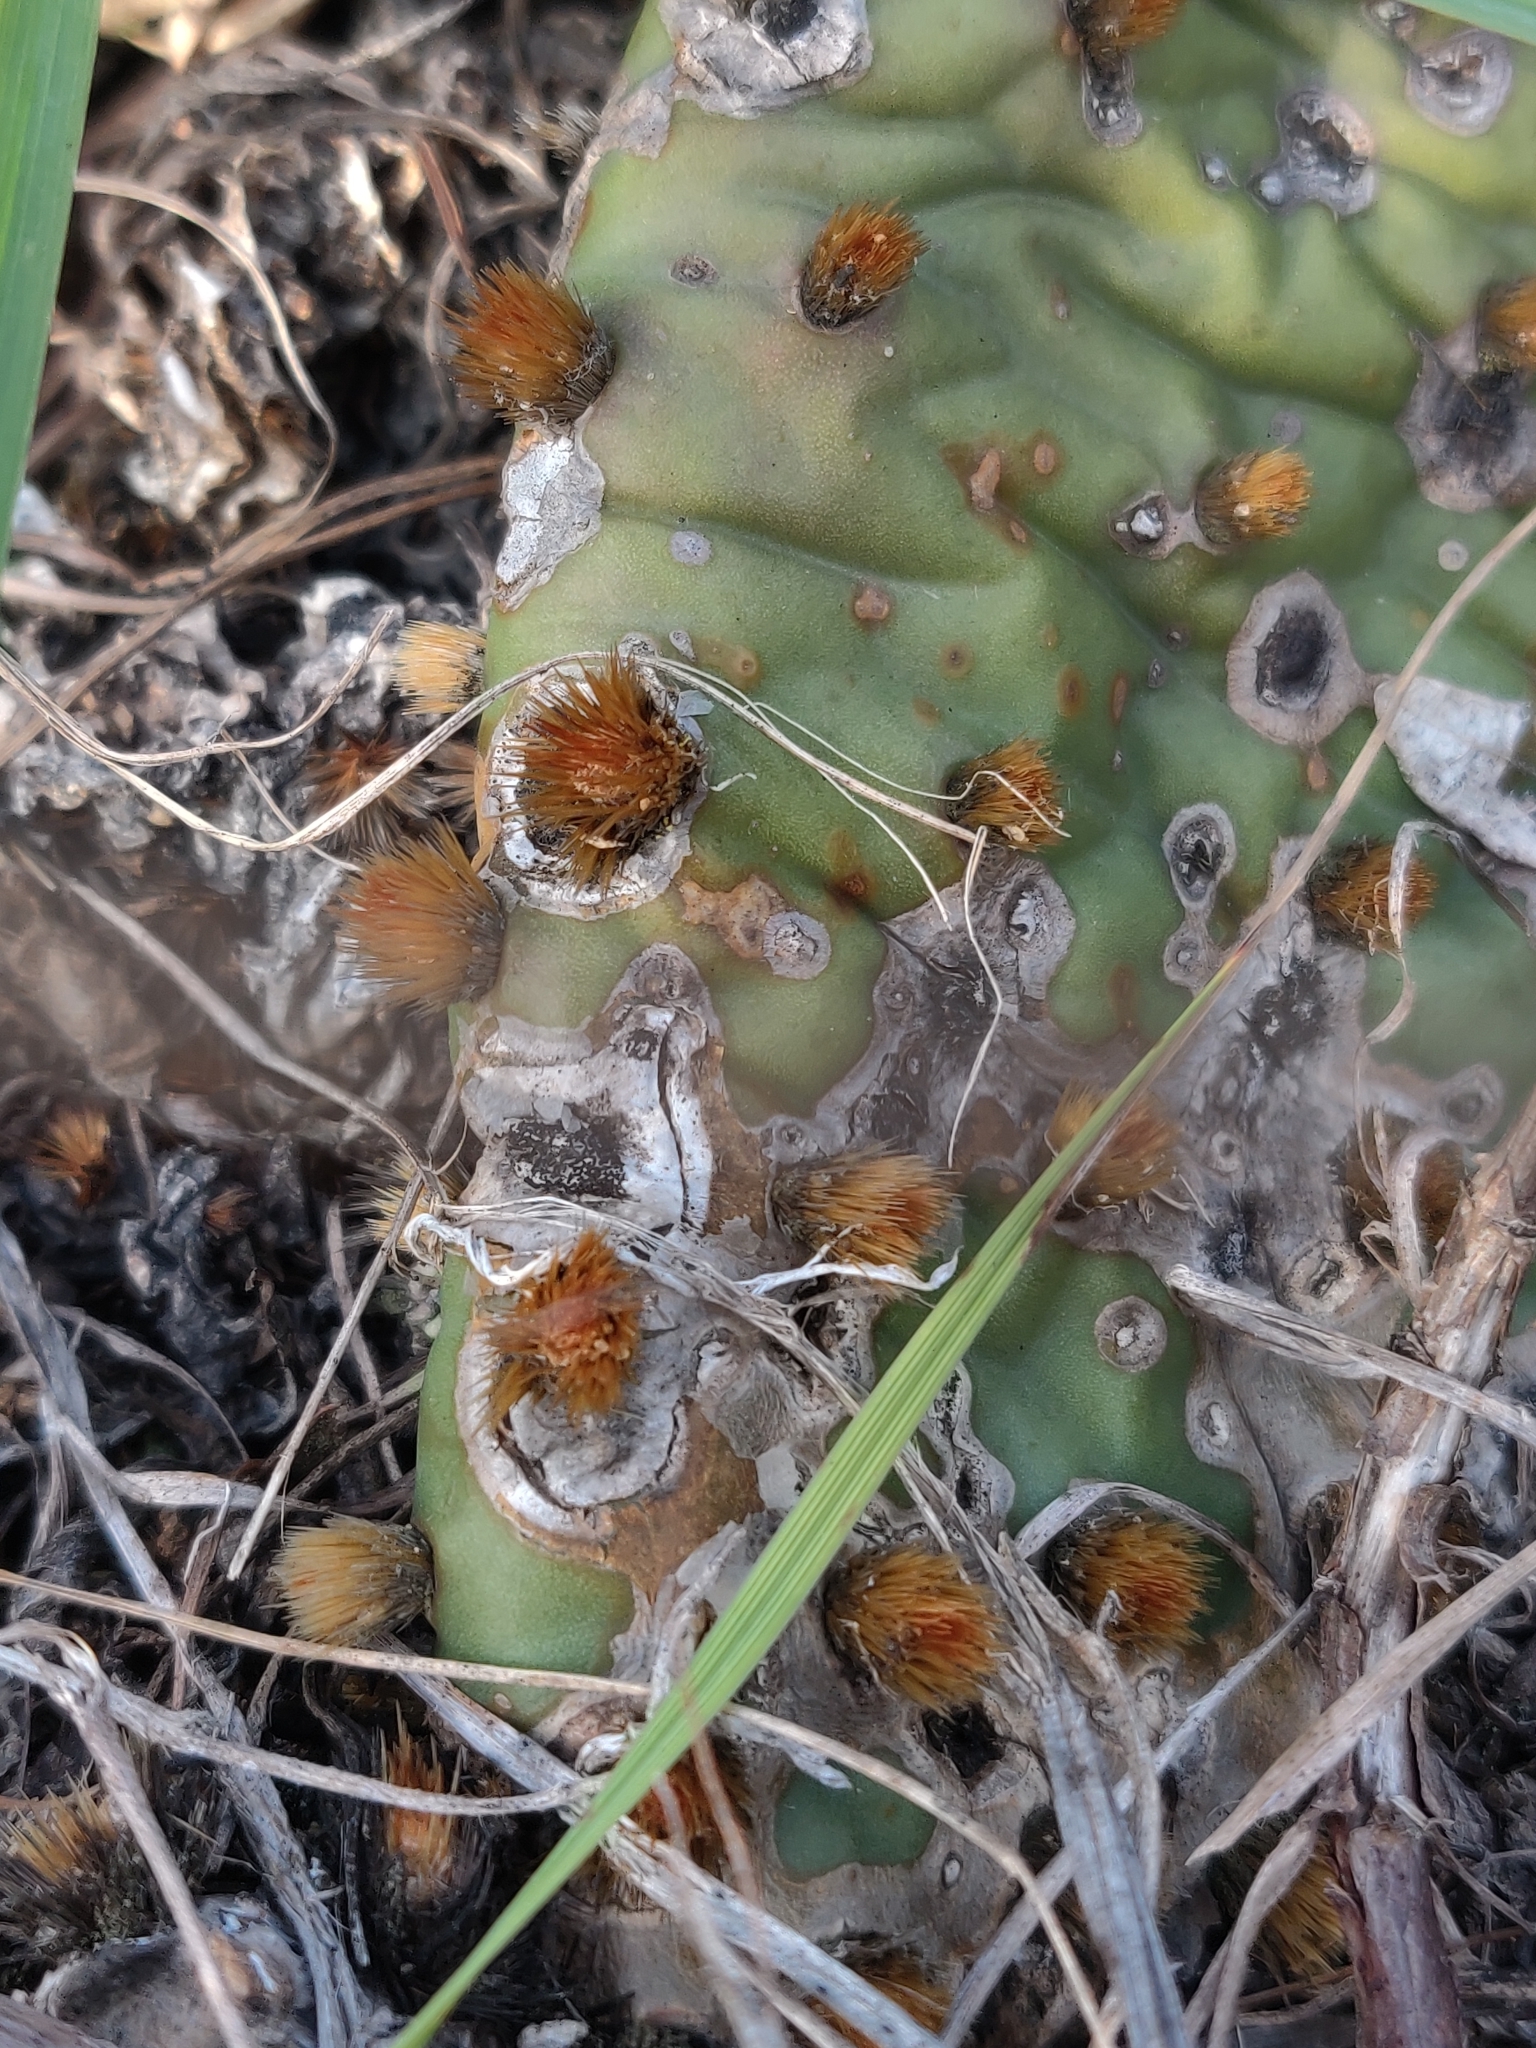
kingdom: Plantae
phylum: Tracheophyta
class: Magnoliopsida
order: Caryophyllales
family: Cactaceae
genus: Opuntia
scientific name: Opuntia humifusa
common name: Eastern prickly-pear
